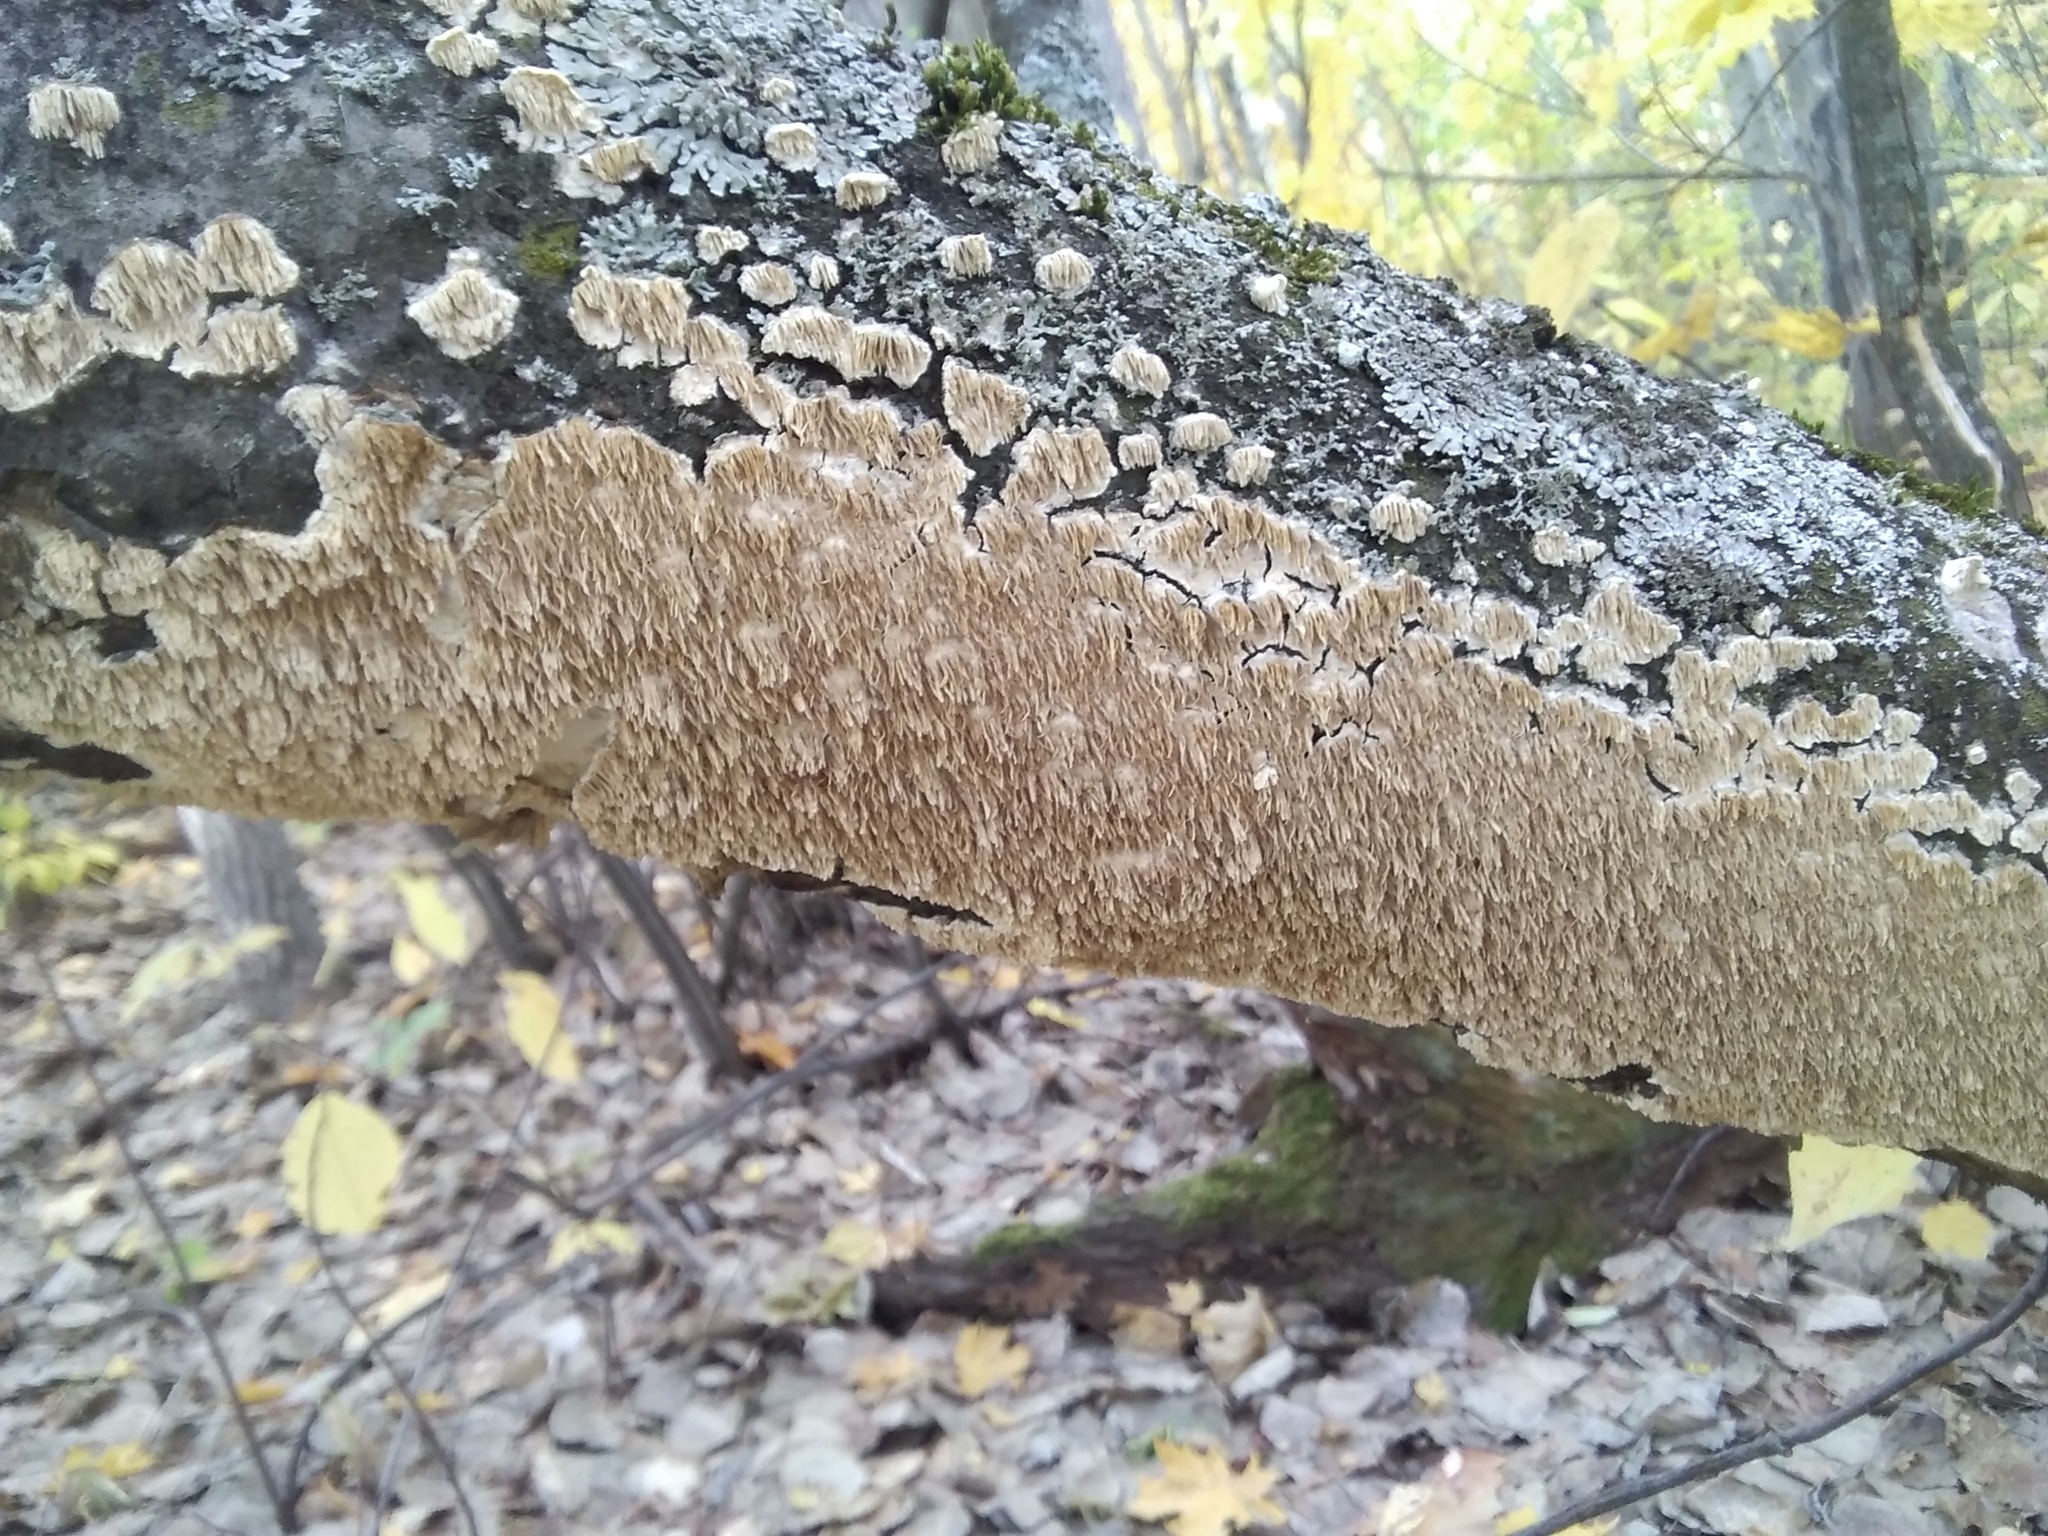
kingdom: Fungi
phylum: Basidiomycota
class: Agaricomycetes
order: Polyporales
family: Irpicaceae
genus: Irpex
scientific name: Irpex lacteus
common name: Milk-white toothed polypore
